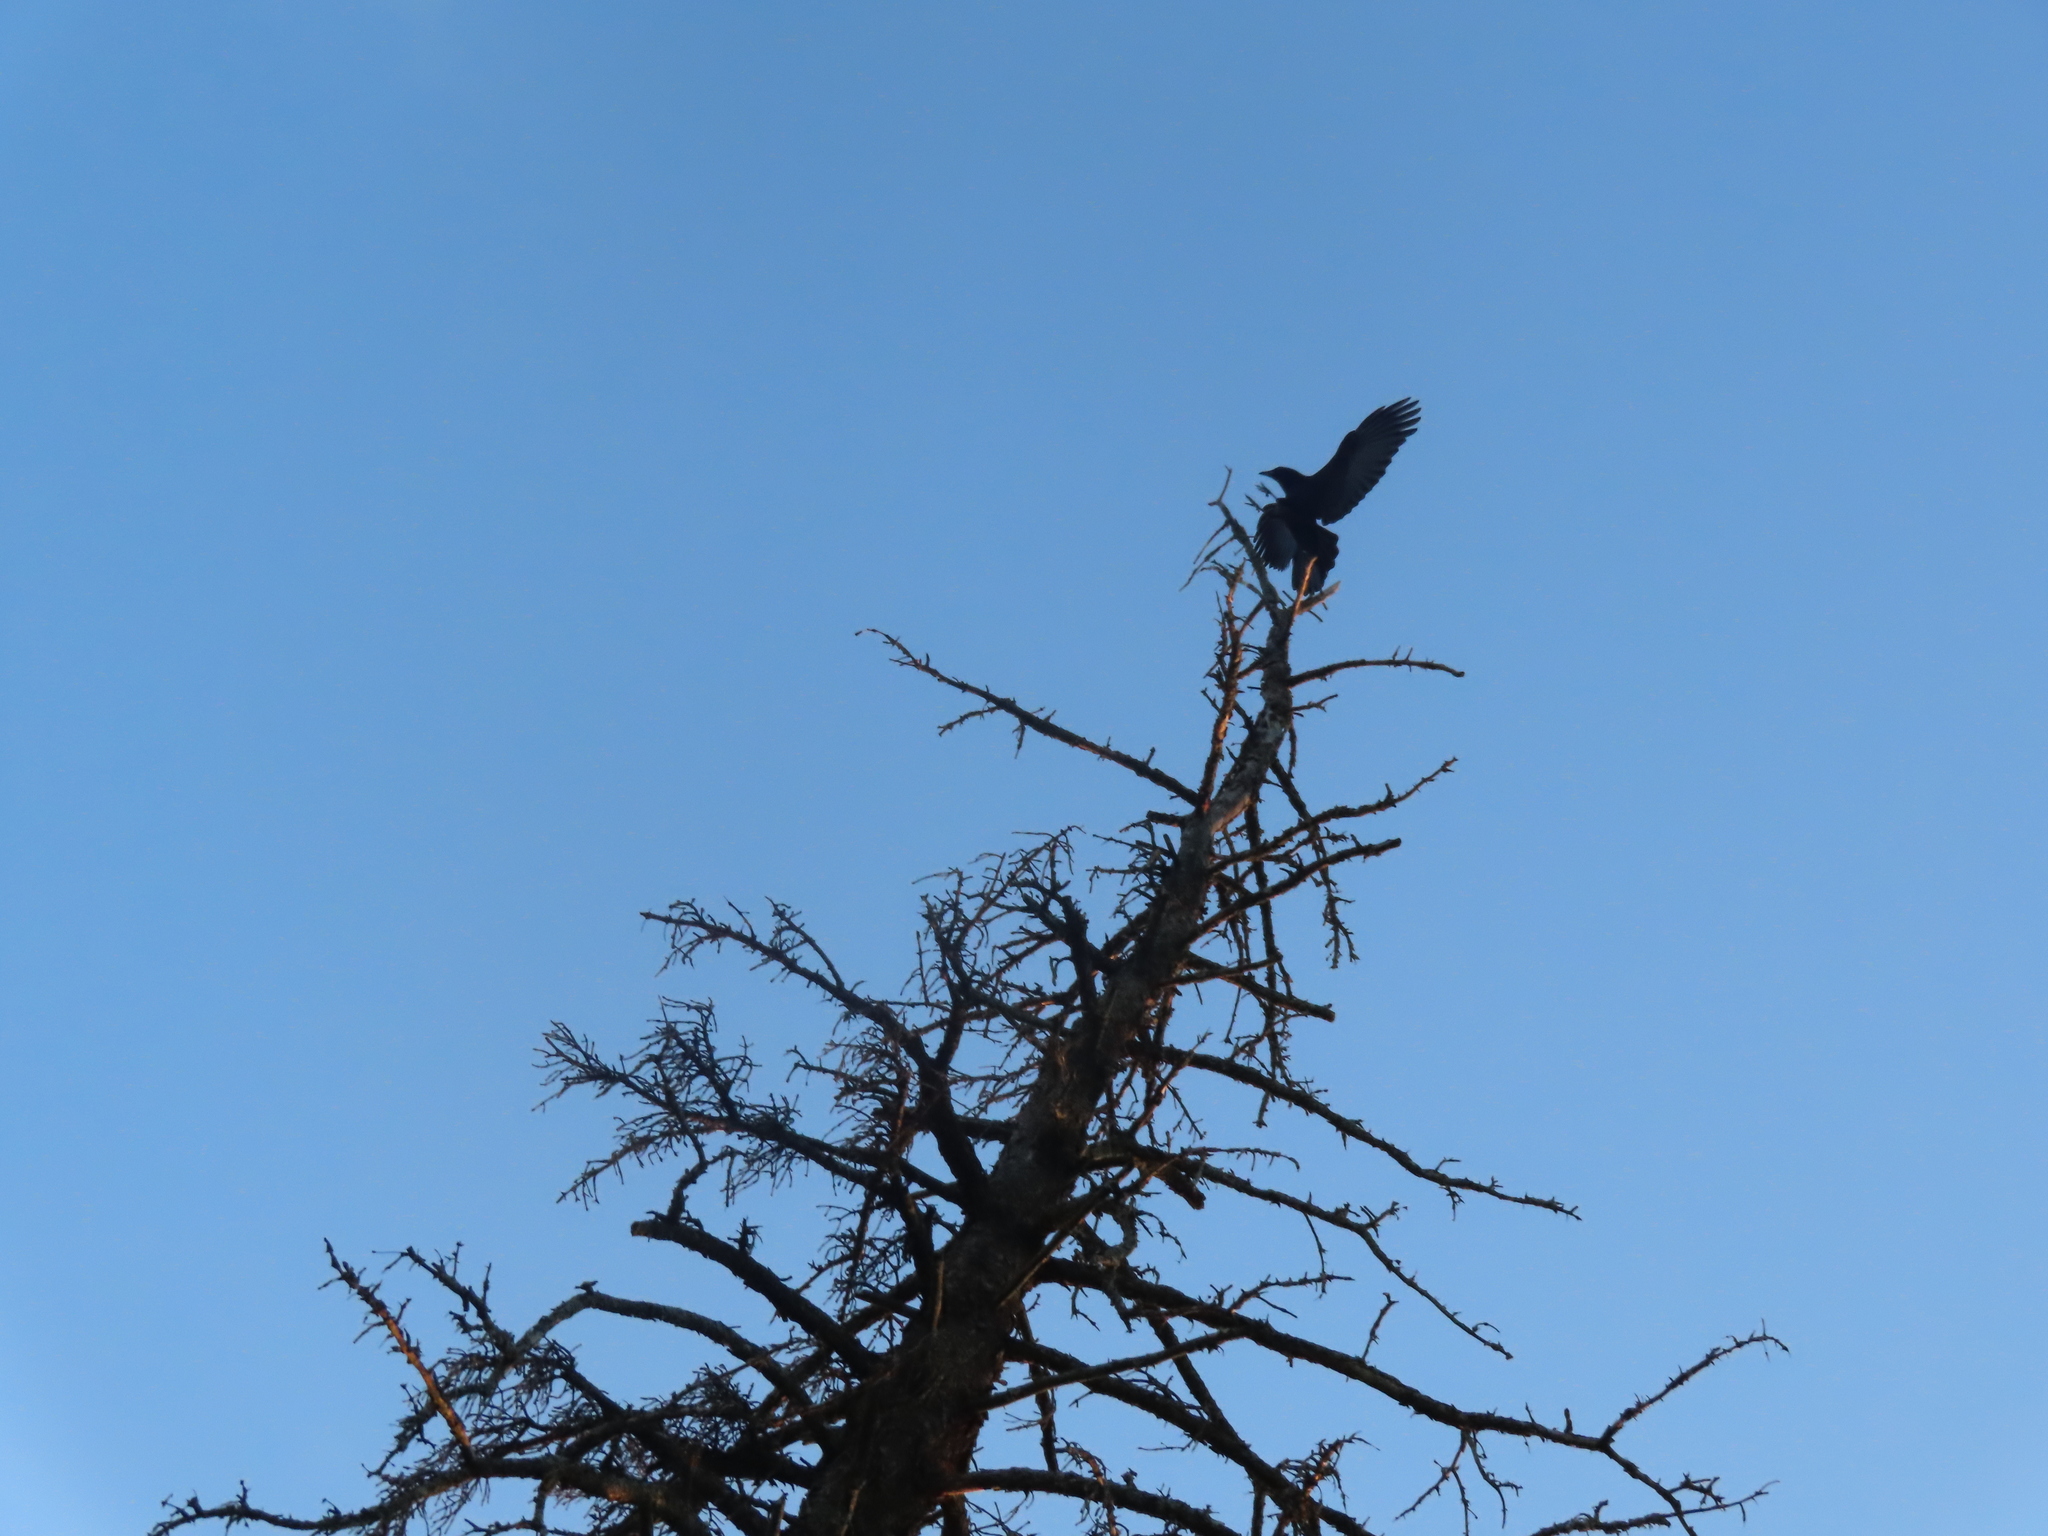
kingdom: Animalia
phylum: Chordata
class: Aves
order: Passeriformes
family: Corvidae
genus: Corvus
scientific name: Corvus
